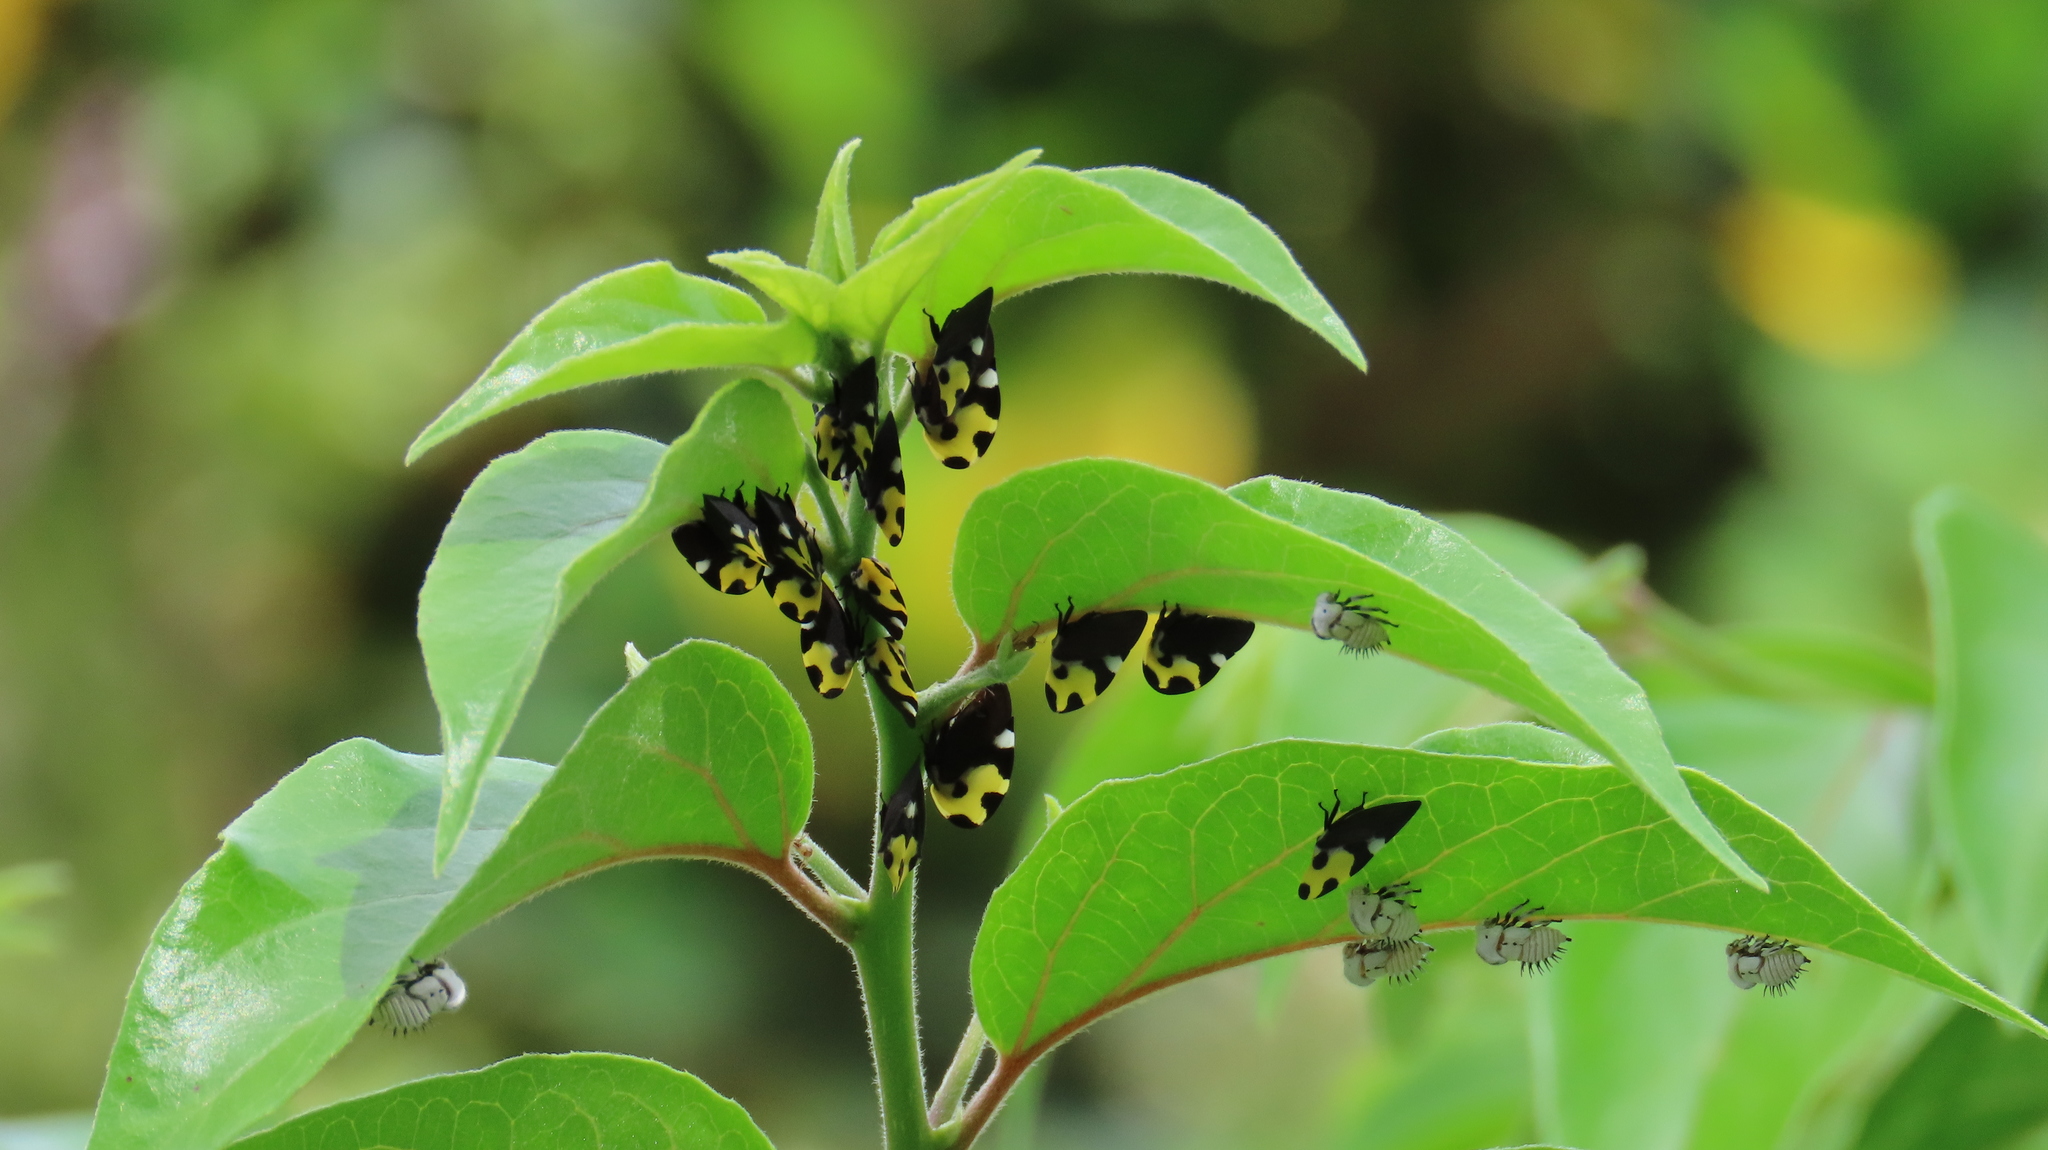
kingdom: Animalia
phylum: Arthropoda
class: Insecta
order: Hemiptera
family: Membracidae
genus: Membracis
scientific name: Membracis mexicana
